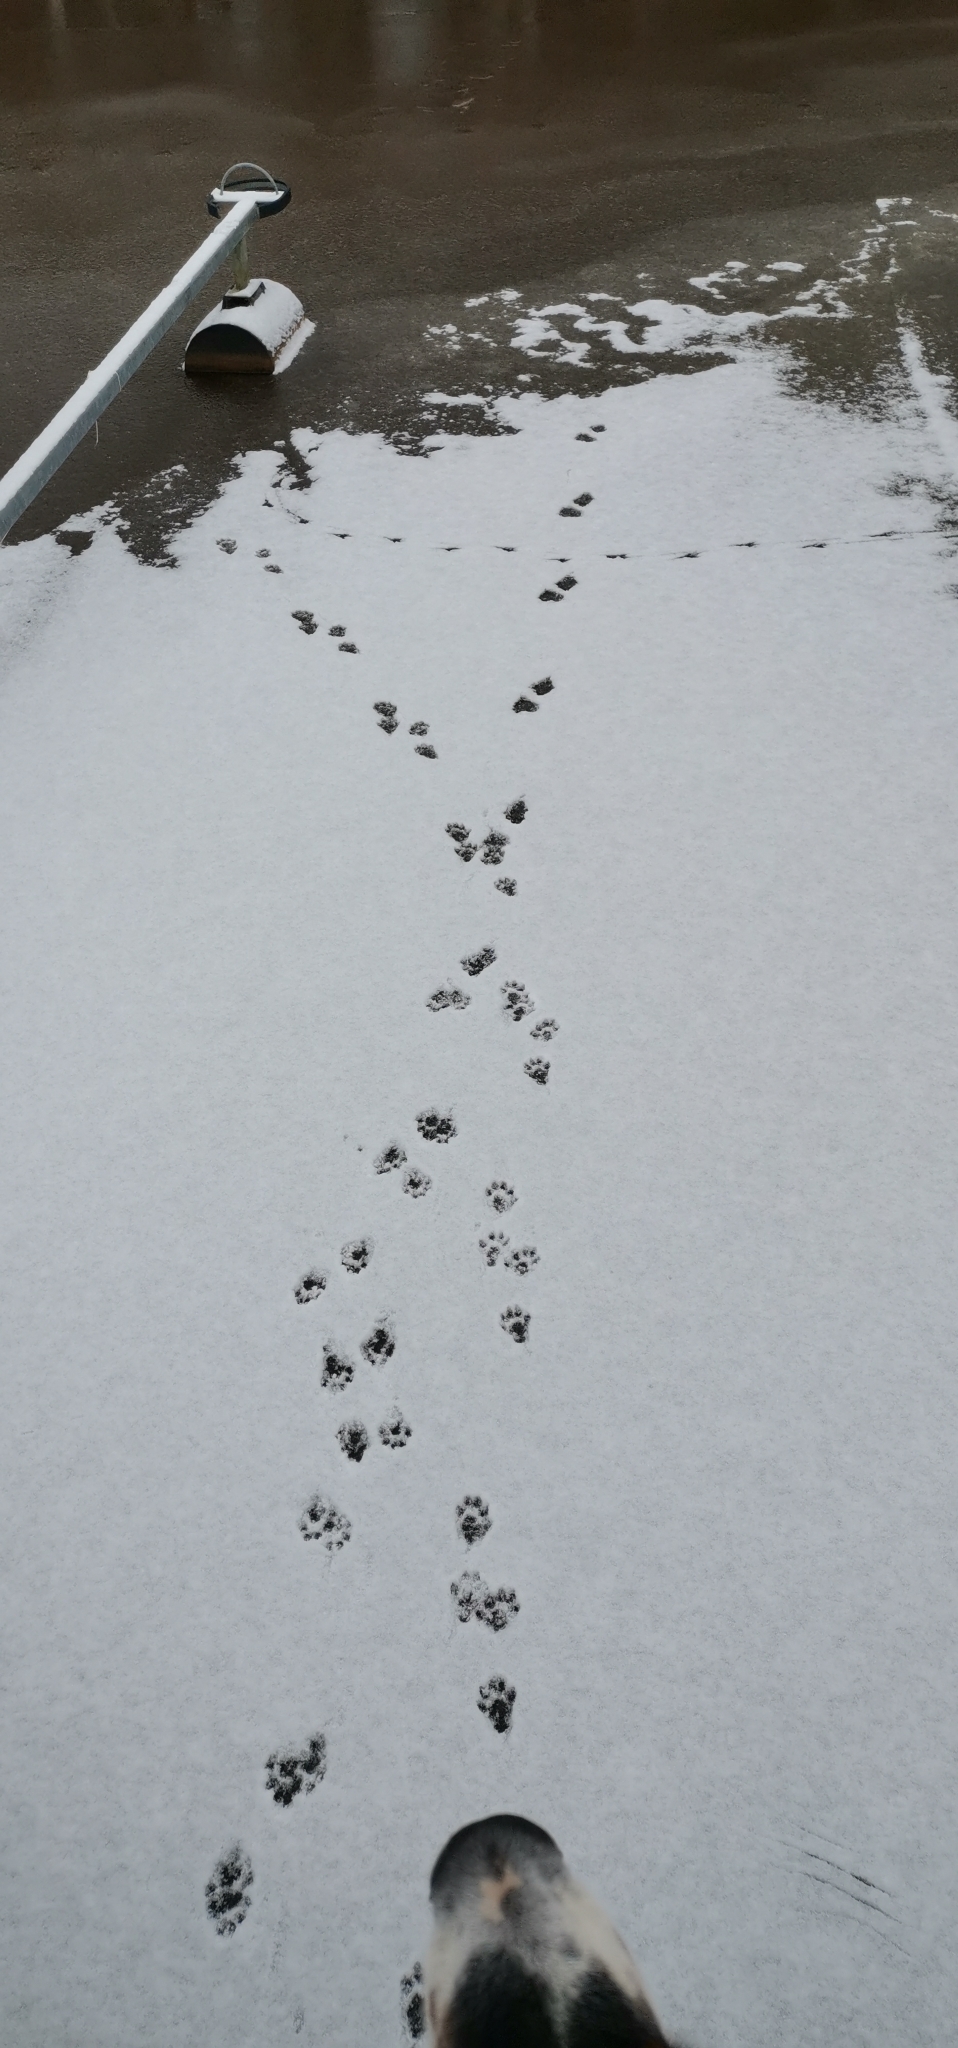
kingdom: Animalia
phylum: Chordata
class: Mammalia
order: Carnivora
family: Mustelidae
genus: Lutra
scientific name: Lutra lutra
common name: European otter
